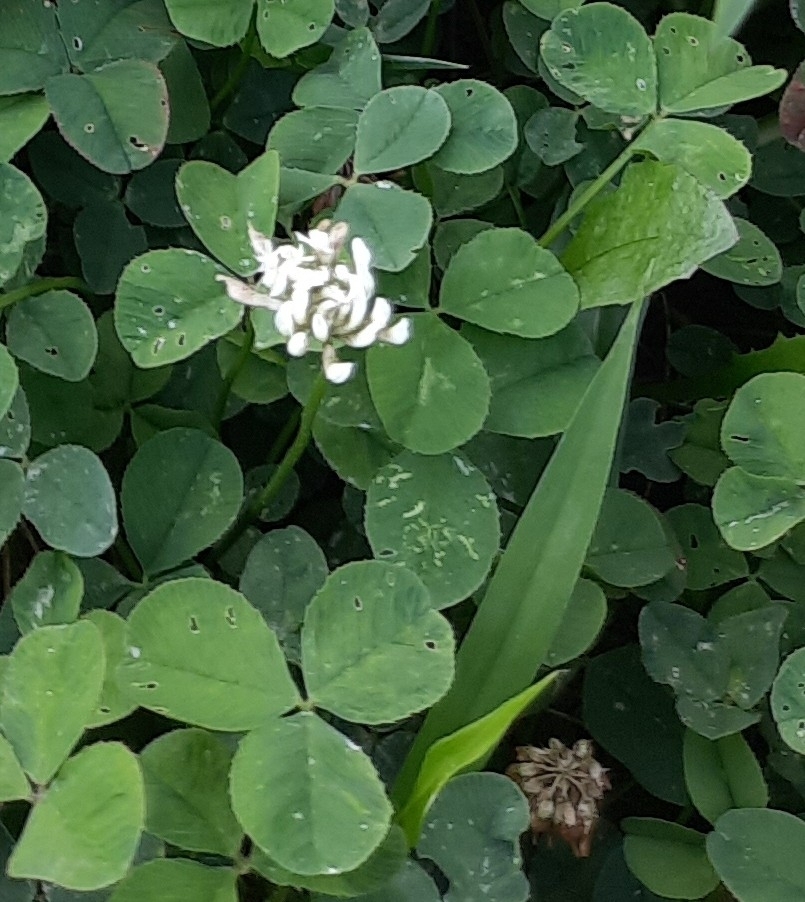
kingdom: Plantae
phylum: Tracheophyta
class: Magnoliopsida
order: Fabales
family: Fabaceae
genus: Trifolium
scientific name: Trifolium repens
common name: White clover
